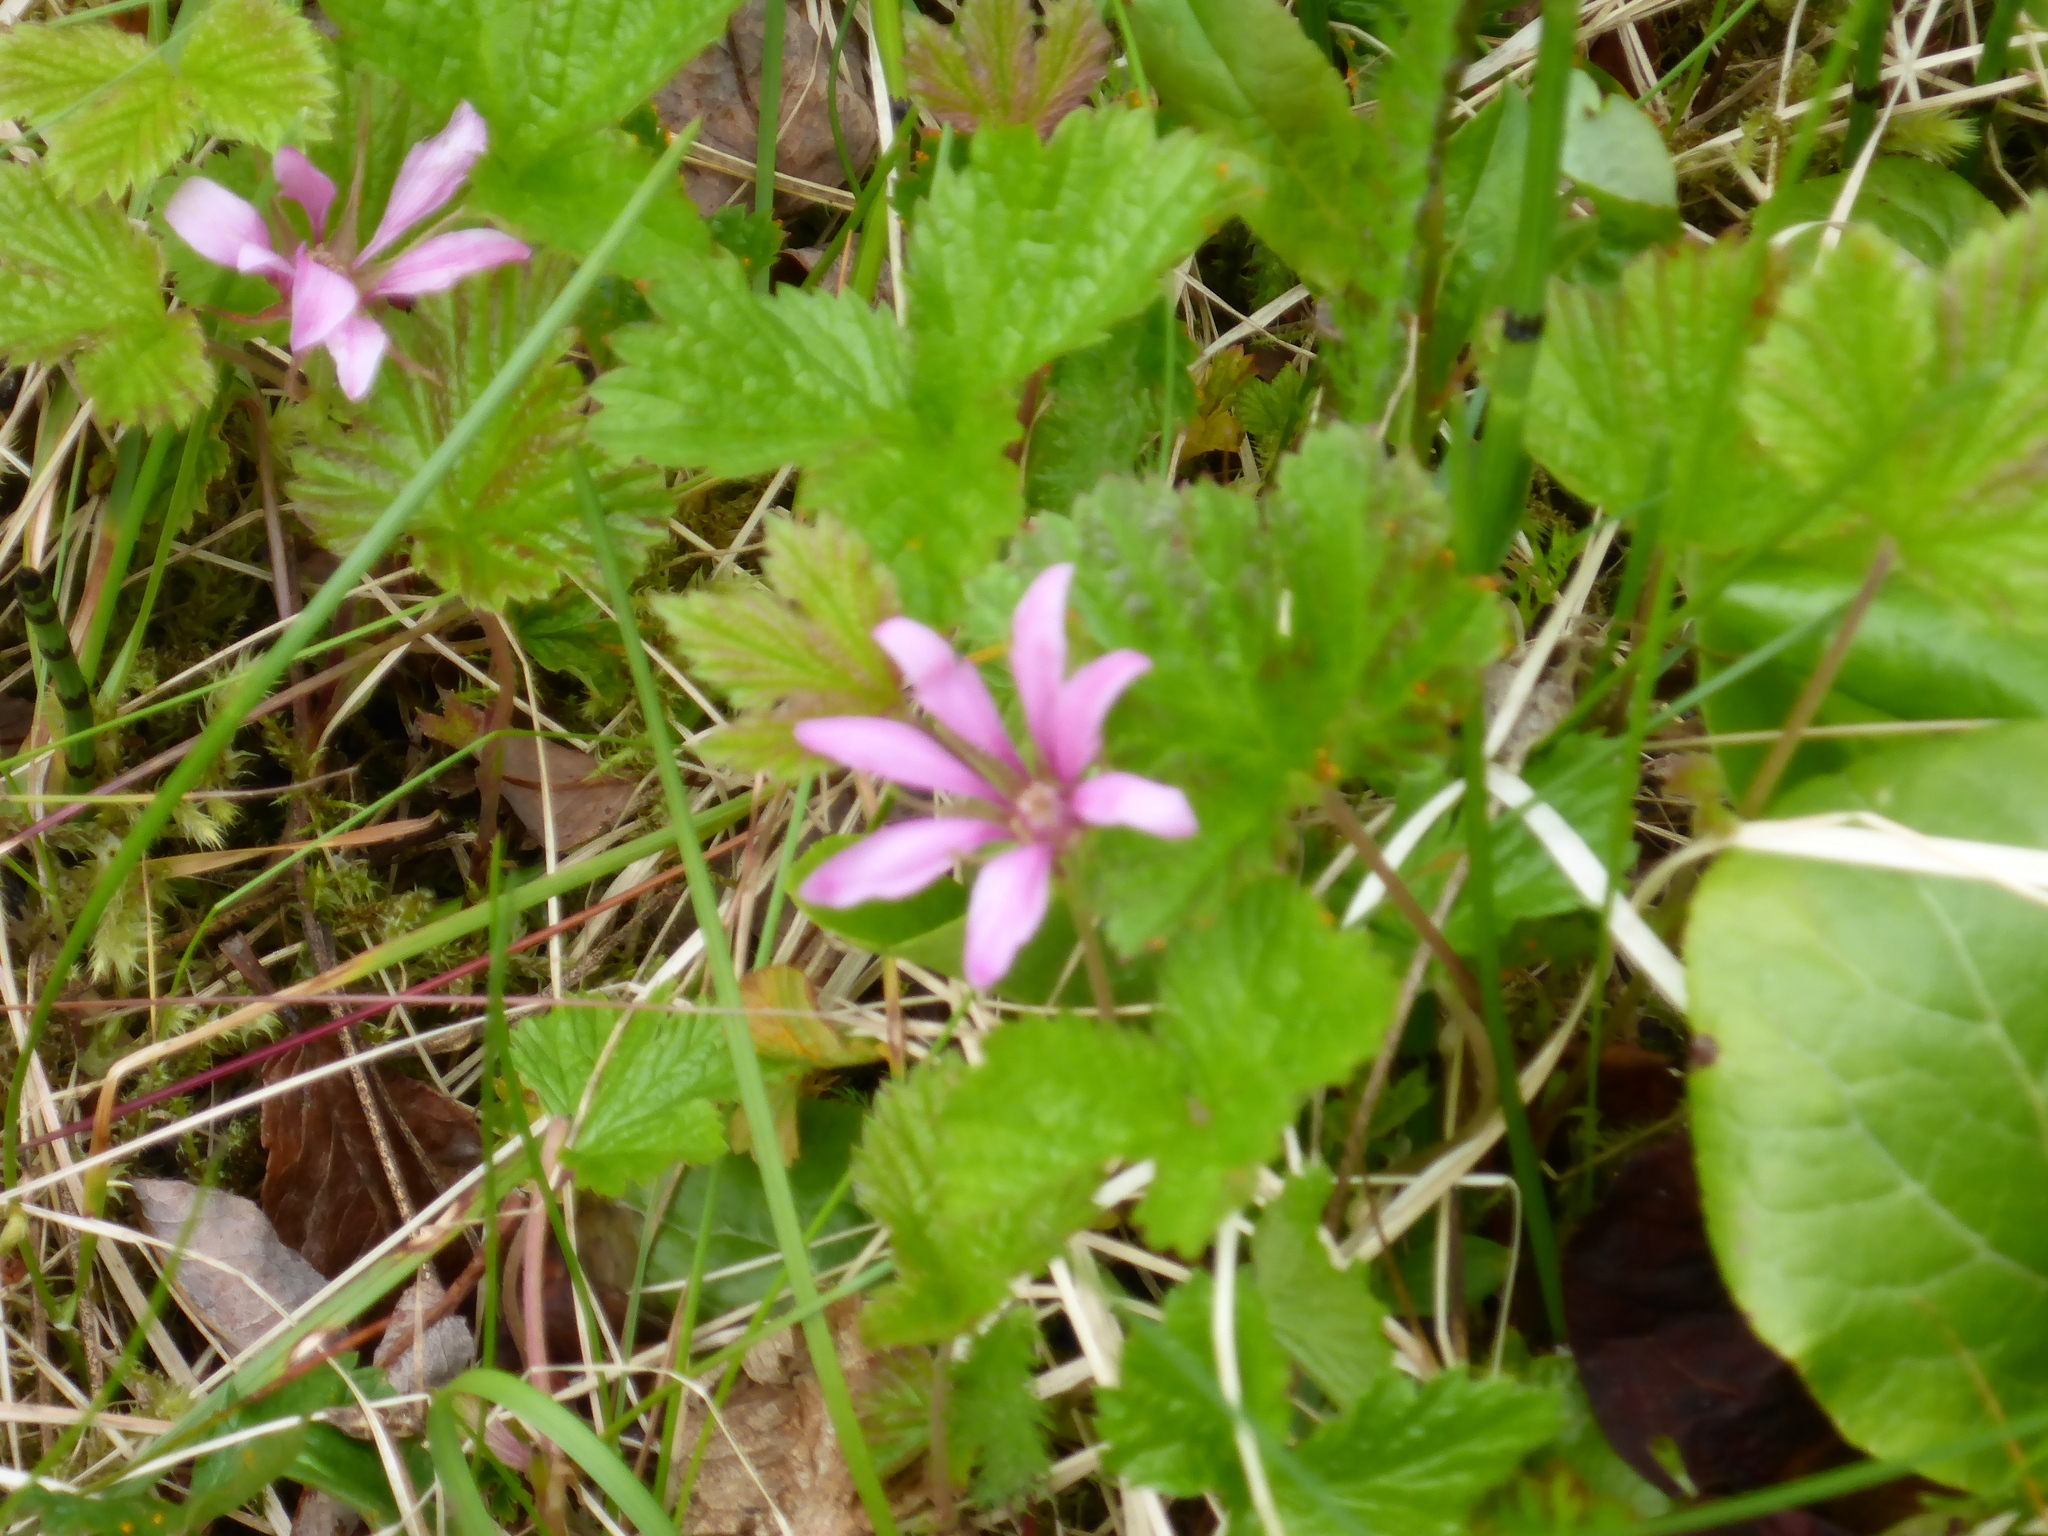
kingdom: Plantae
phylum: Tracheophyta
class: Magnoliopsida
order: Rosales
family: Rosaceae
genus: Rubus
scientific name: Rubus arcticus
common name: Arctic bramble
